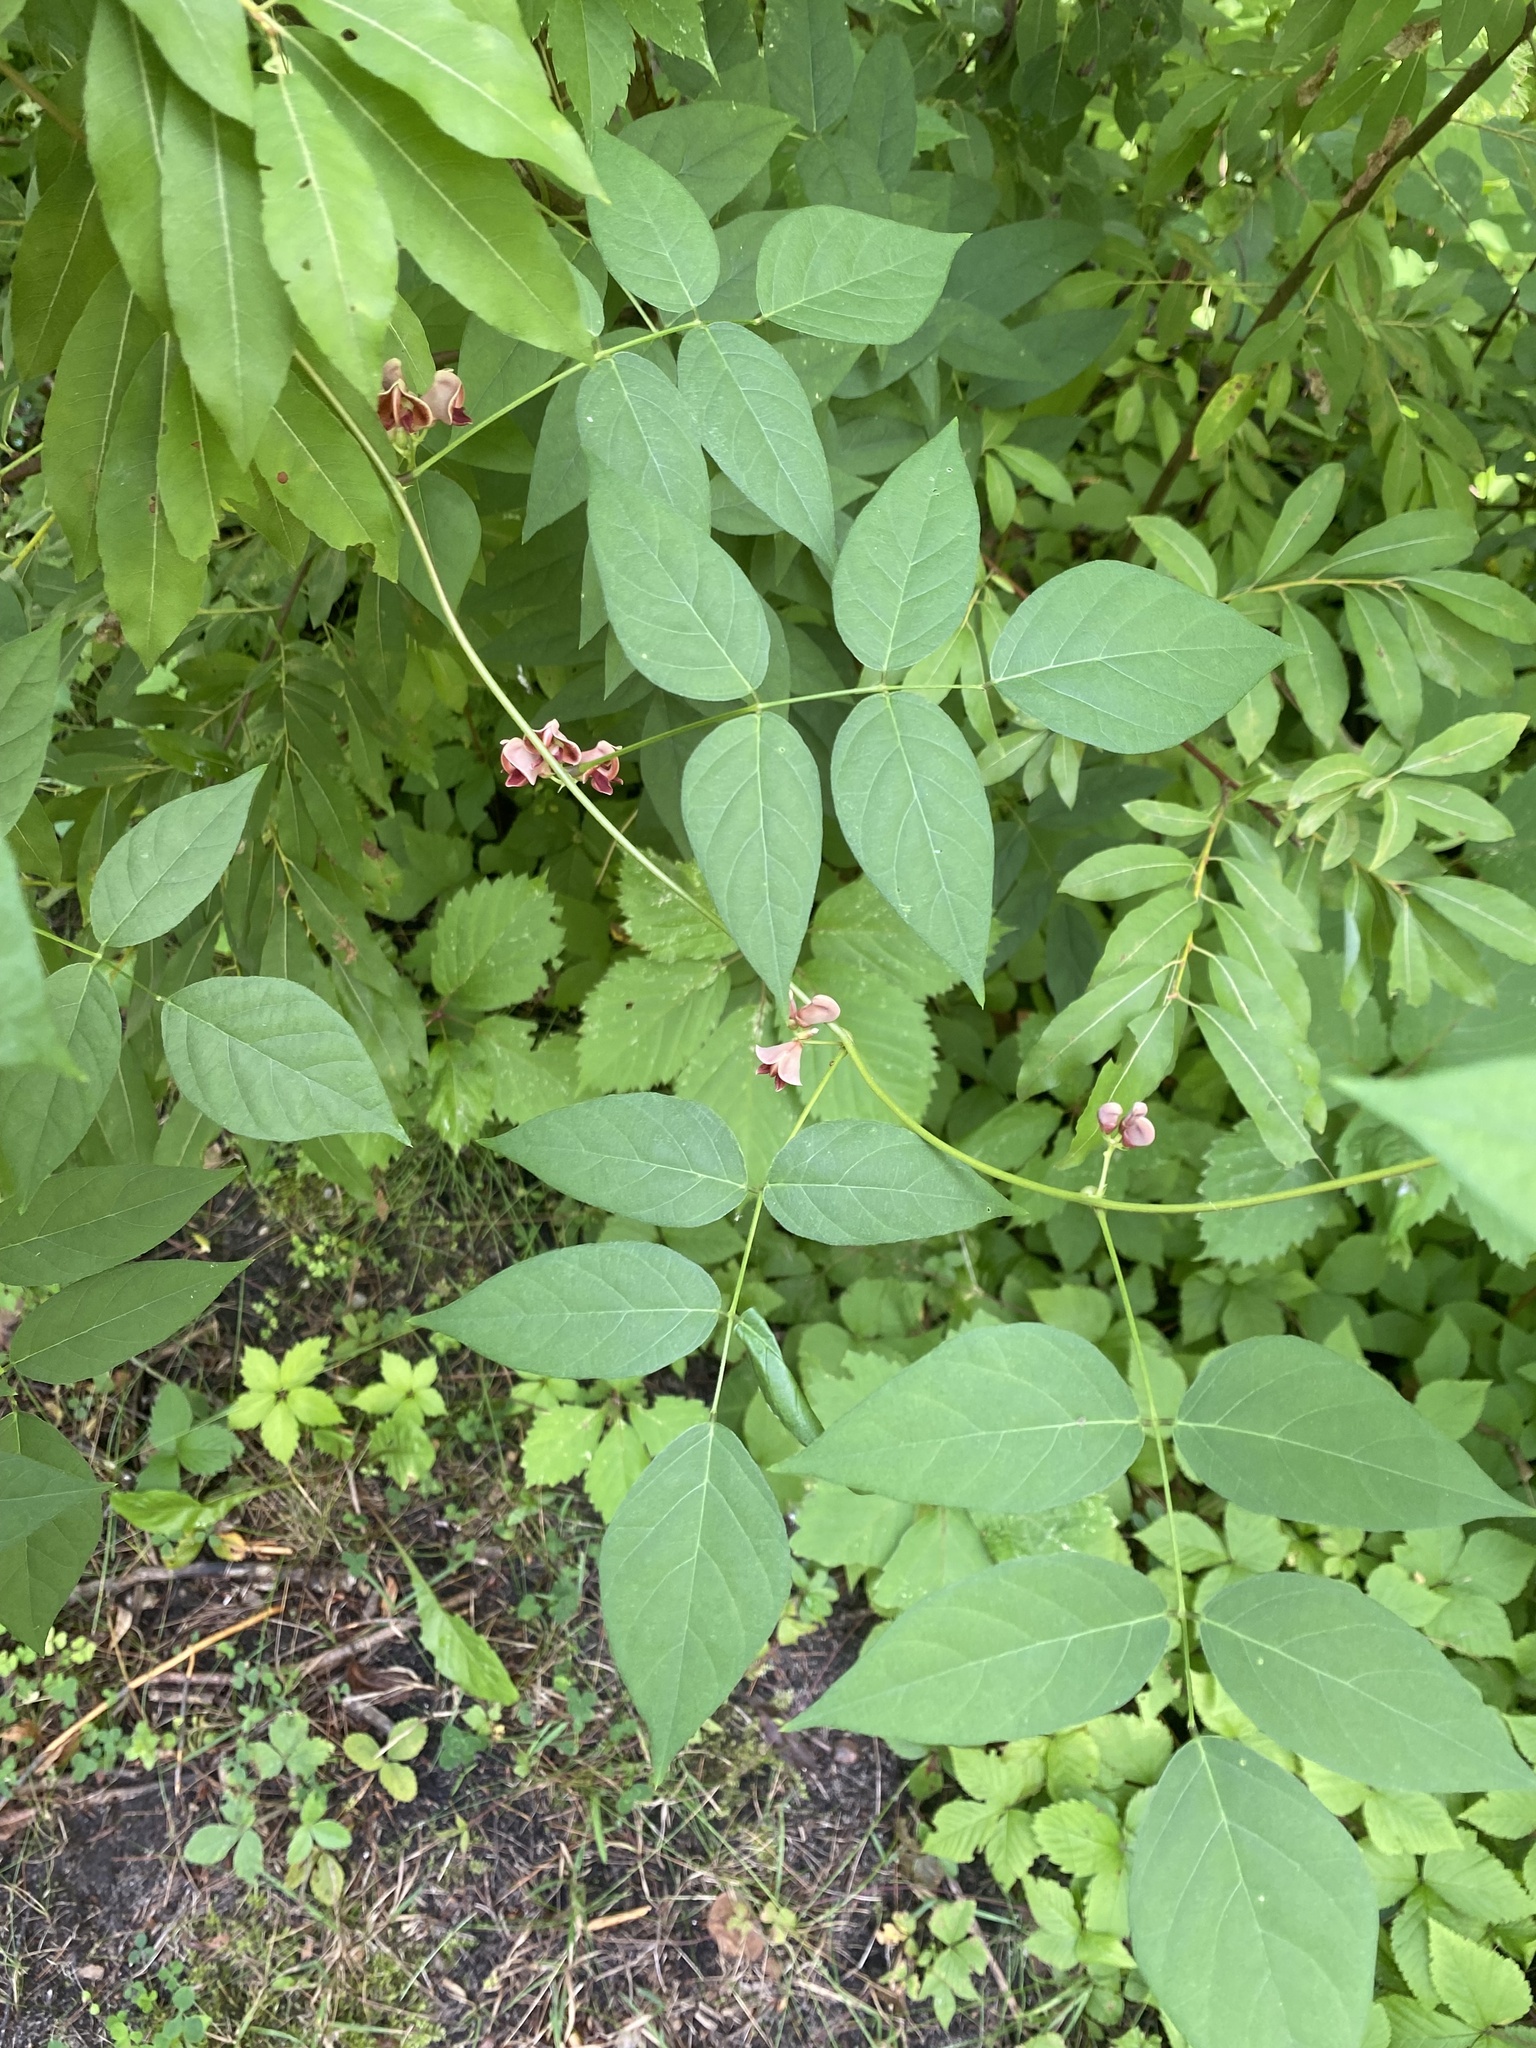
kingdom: Plantae
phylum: Tracheophyta
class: Magnoliopsida
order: Fabales
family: Fabaceae
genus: Apios
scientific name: Apios americana
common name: American potato-bean
